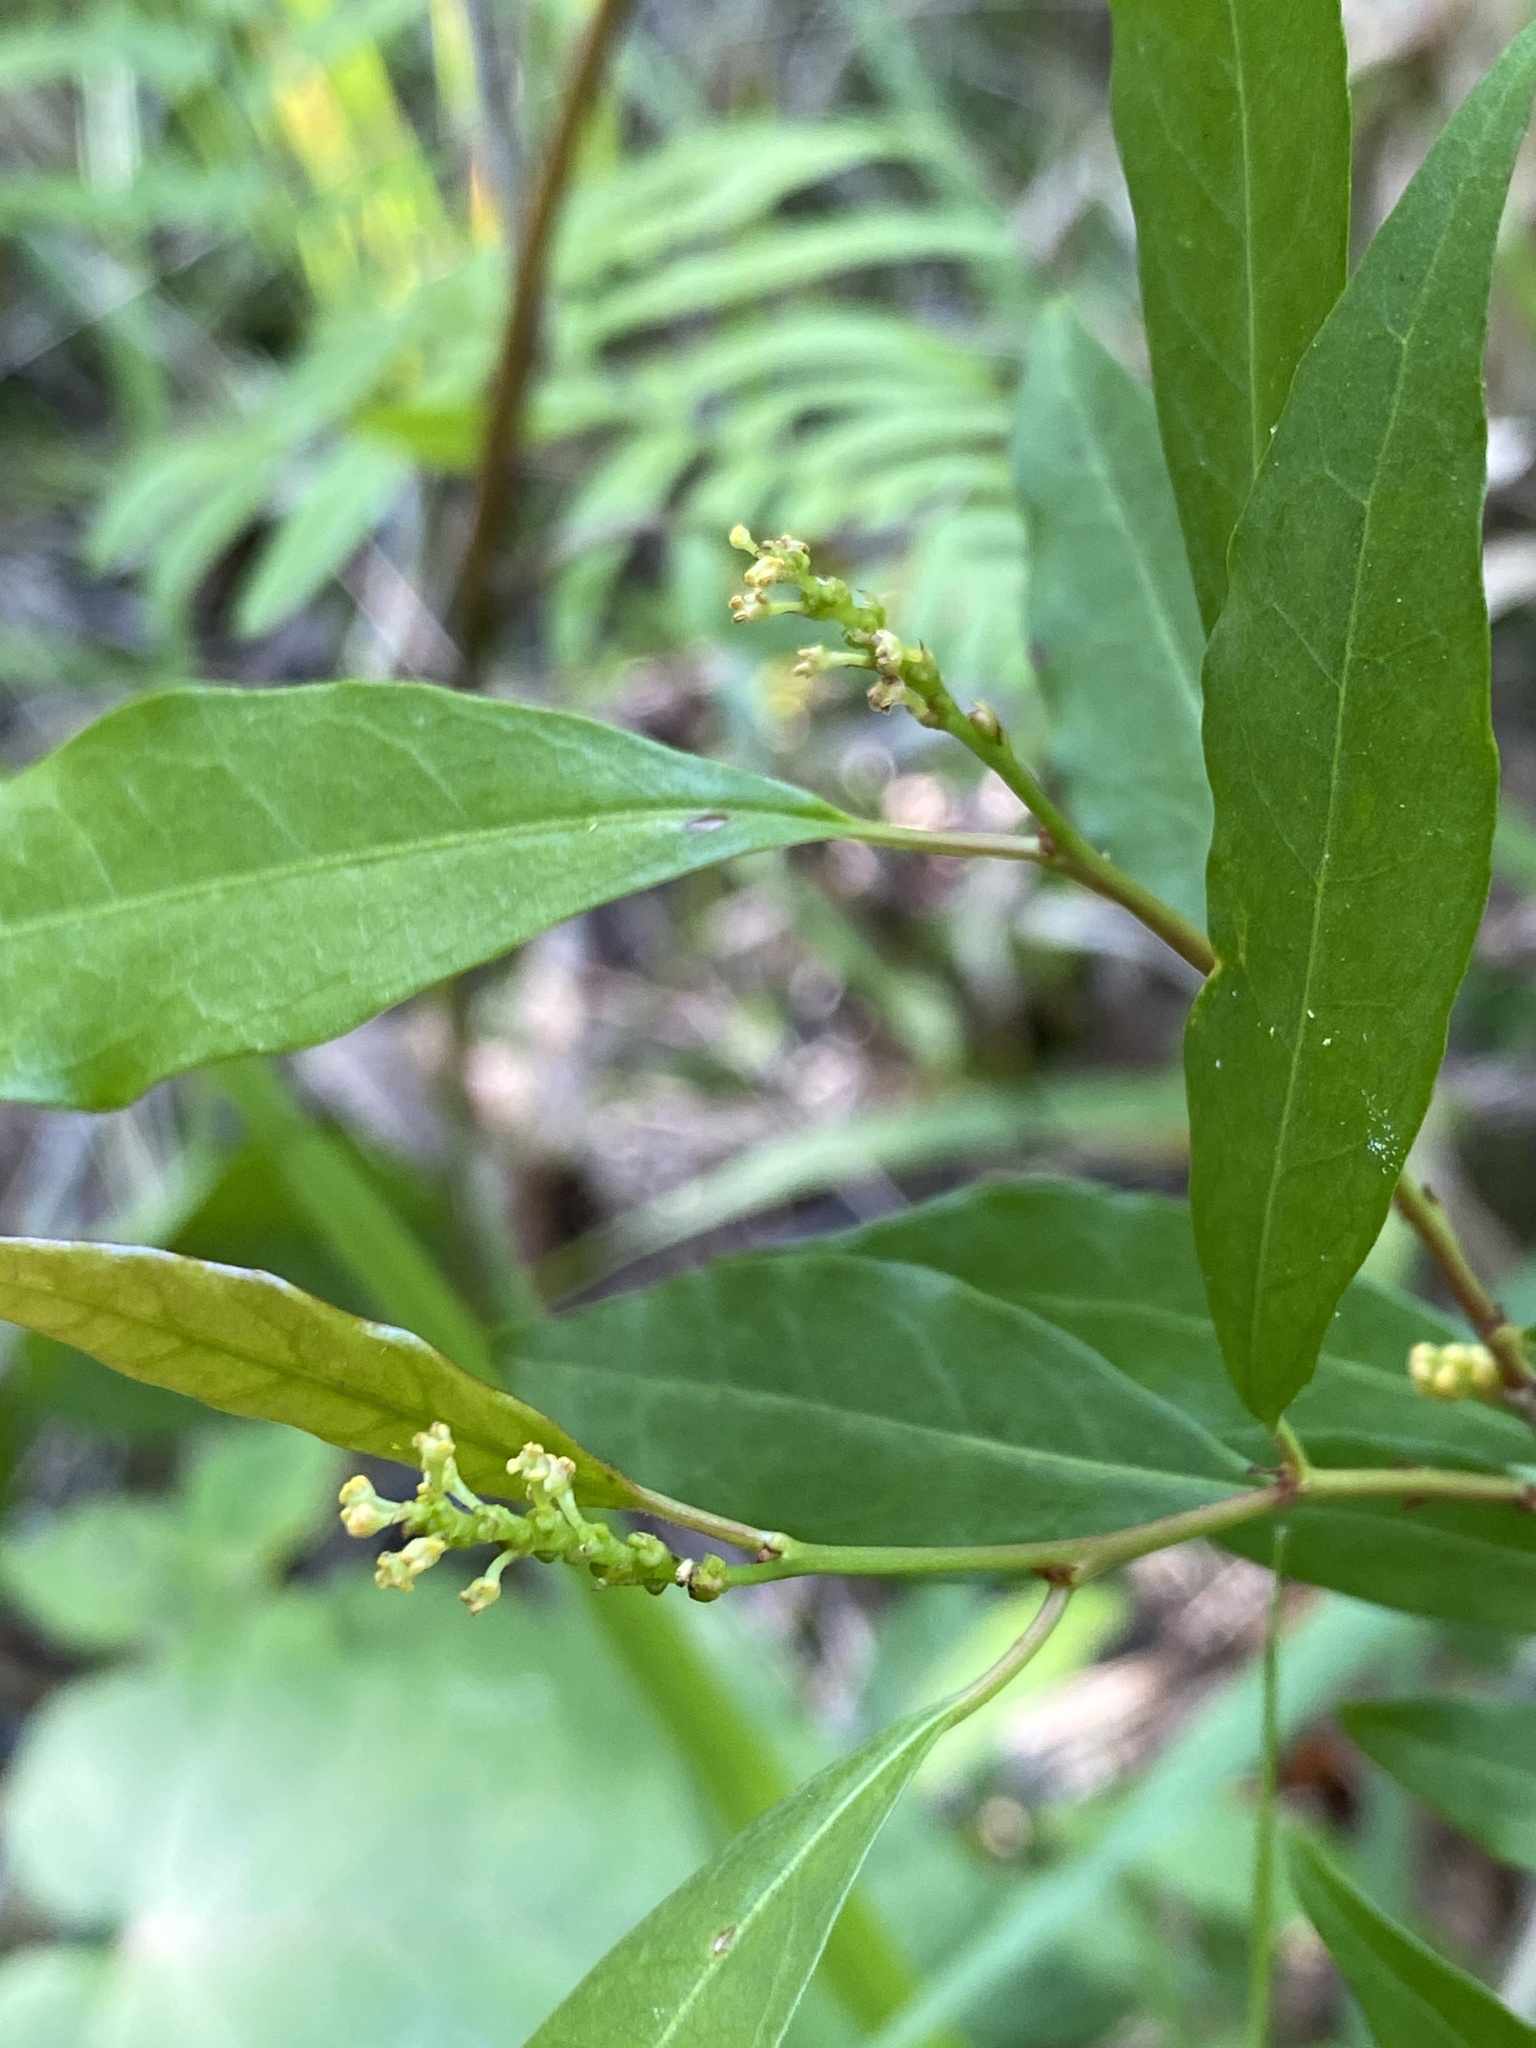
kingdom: Plantae
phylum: Tracheophyta
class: Magnoliopsida
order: Malpighiales
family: Euphorbiaceae
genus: Ditrysinia
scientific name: Ditrysinia fruticosa
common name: Gulf sebastian-bush
